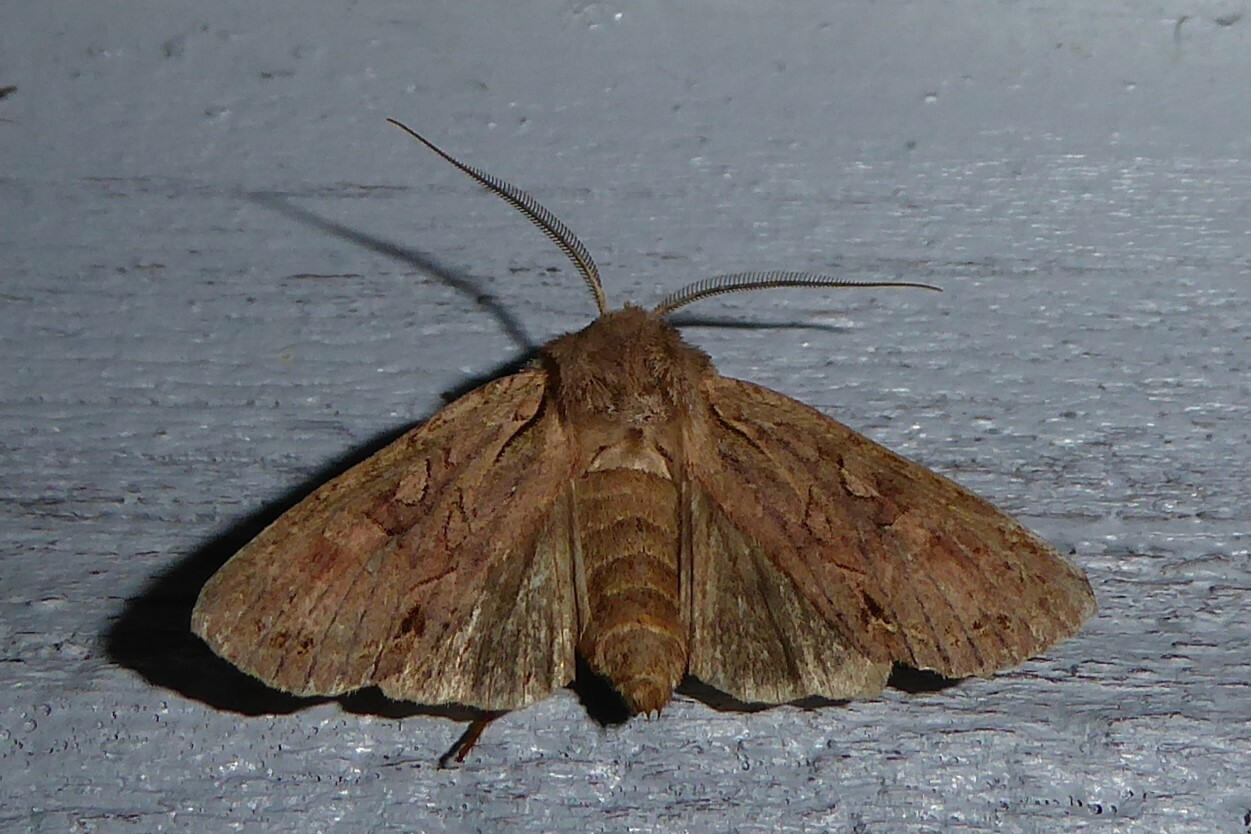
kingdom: Animalia
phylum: Arthropoda
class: Insecta
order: Lepidoptera
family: Noctuidae
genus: Ichneutica
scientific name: Ichneutica
